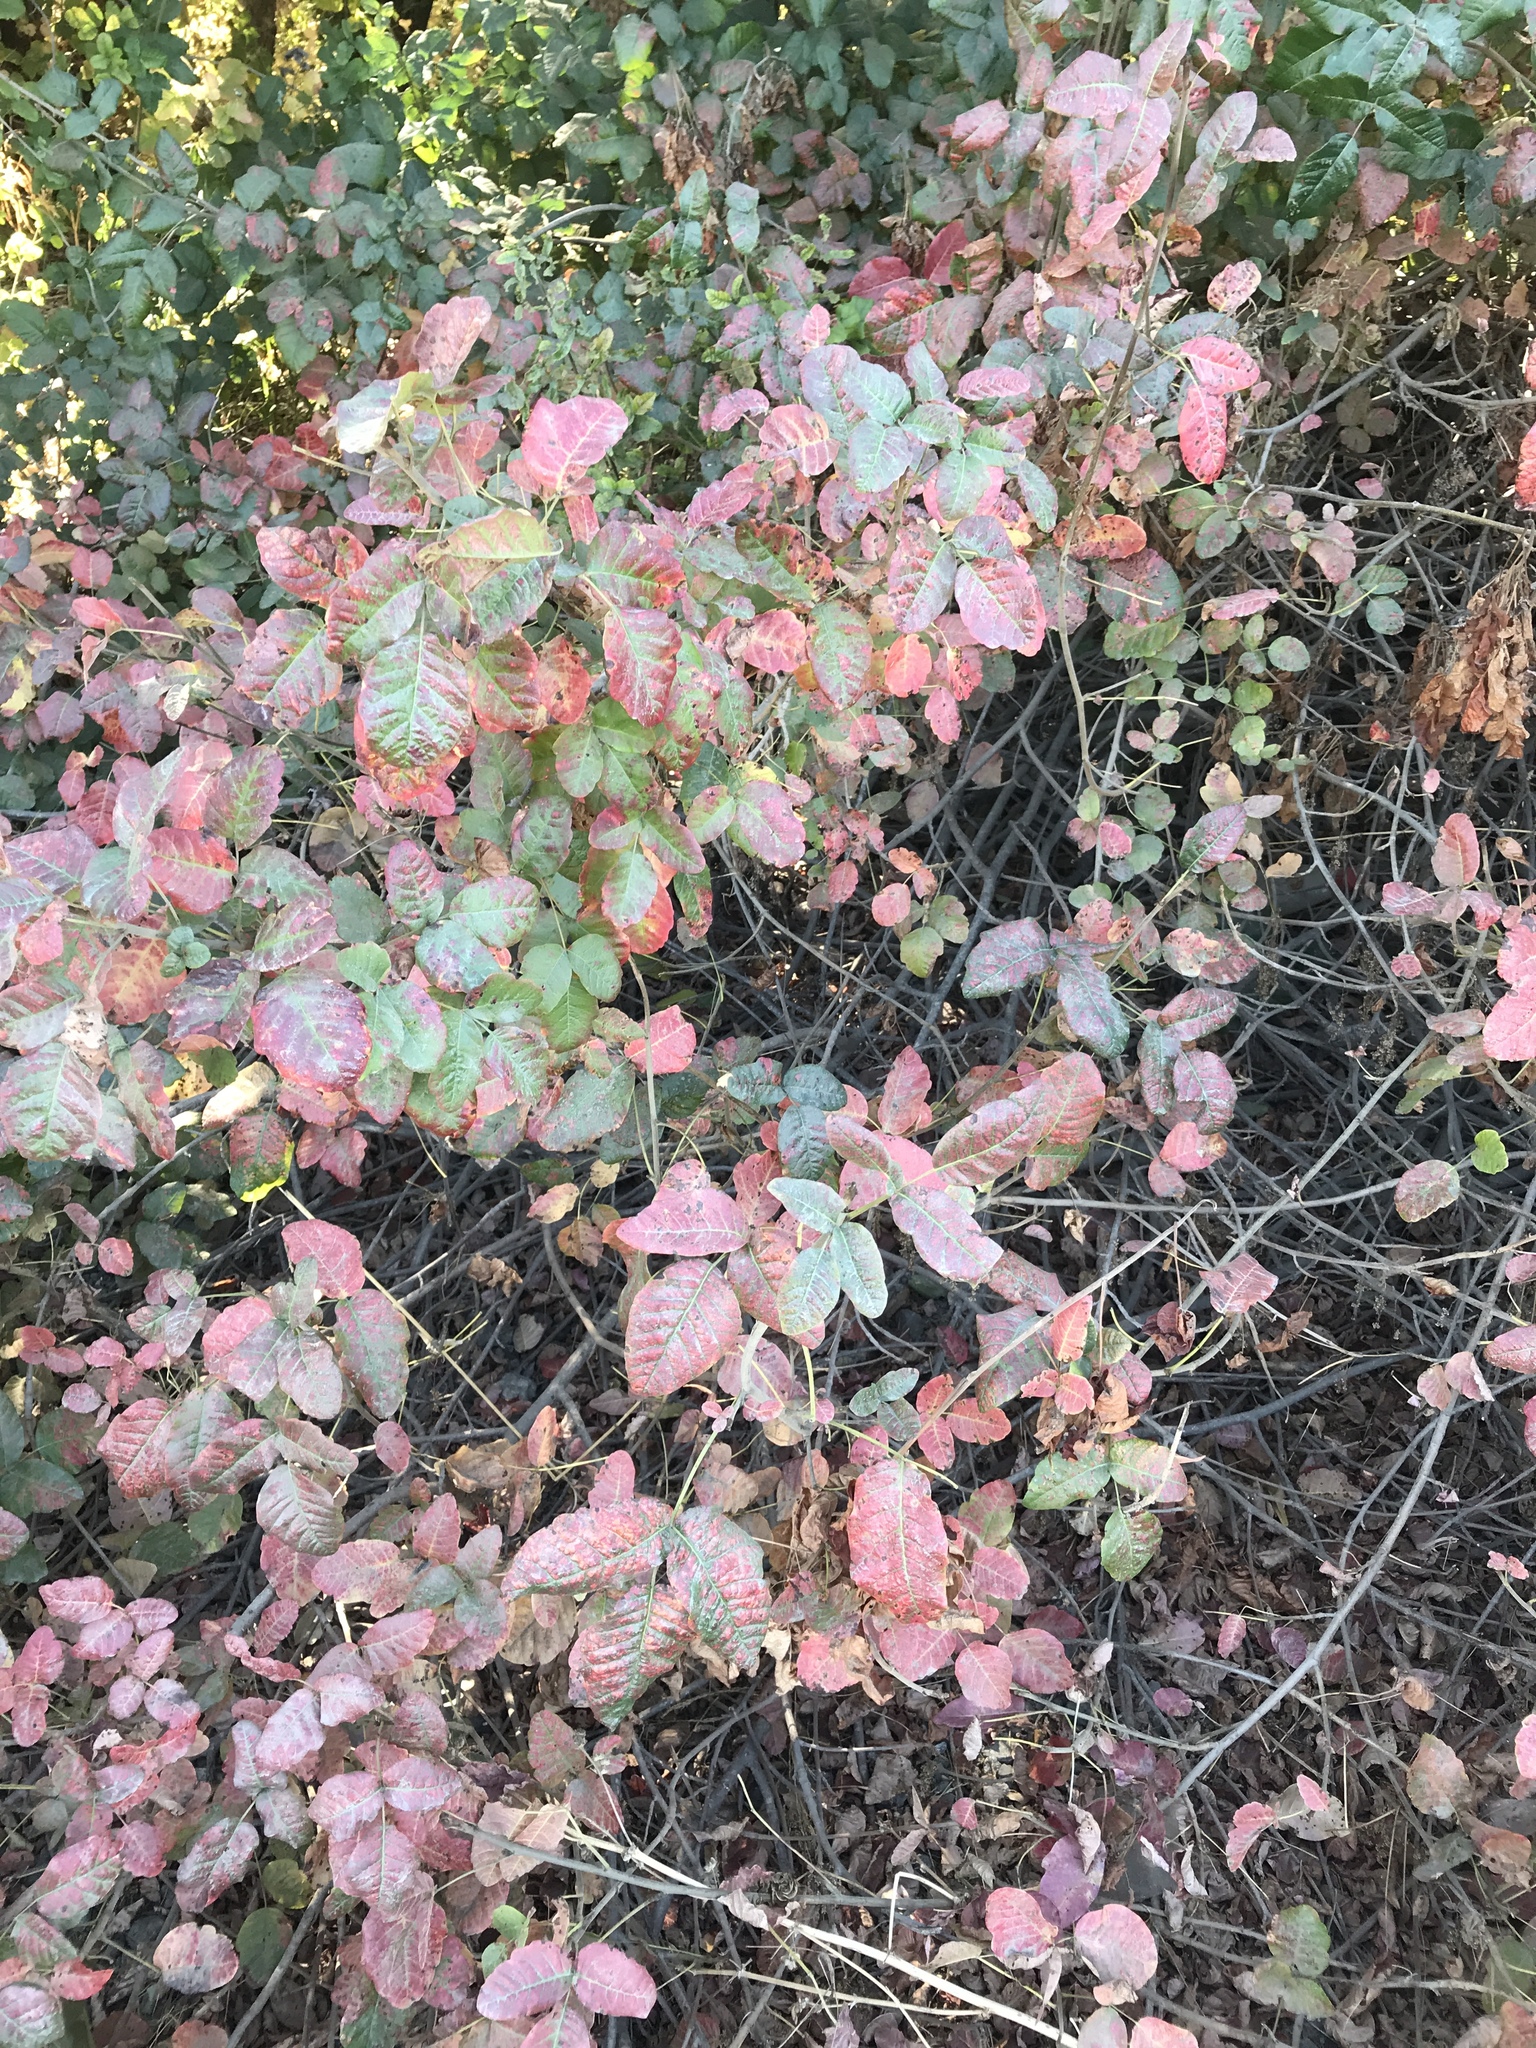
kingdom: Plantae
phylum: Tracheophyta
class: Magnoliopsida
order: Sapindales
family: Anacardiaceae
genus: Toxicodendron
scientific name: Toxicodendron diversilobum
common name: Pacific poison-oak
